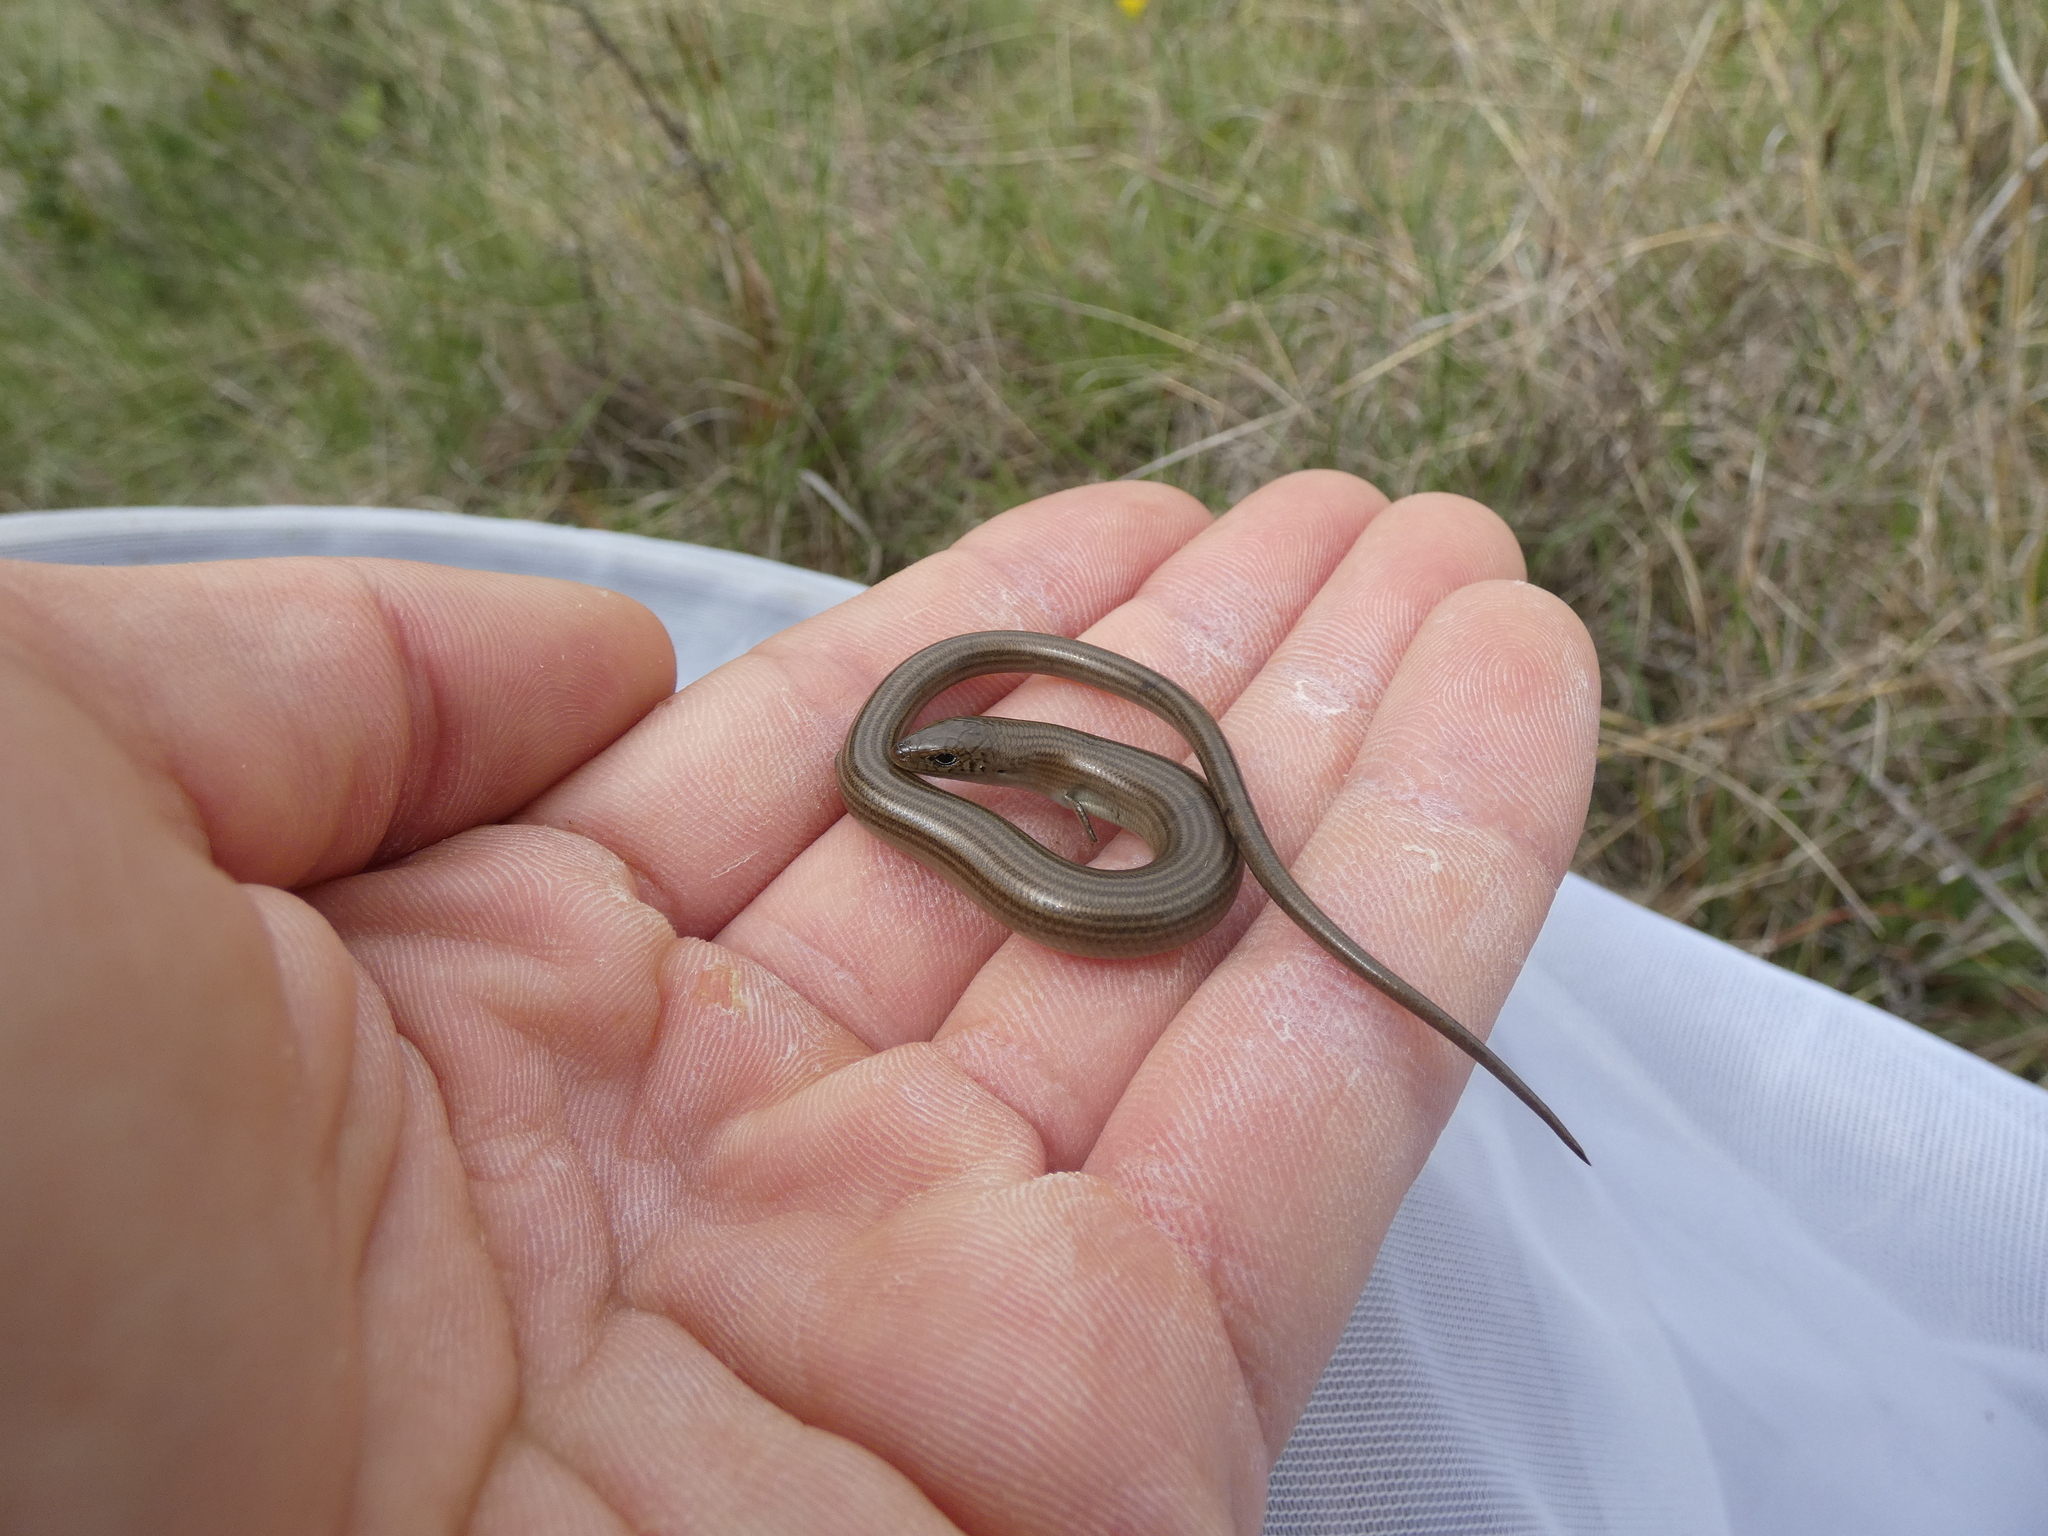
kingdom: Animalia
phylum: Chordata
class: Squamata
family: Scincidae
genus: Chalcides
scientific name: Chalcides striatus
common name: Western (or iberian) three-toed skink
